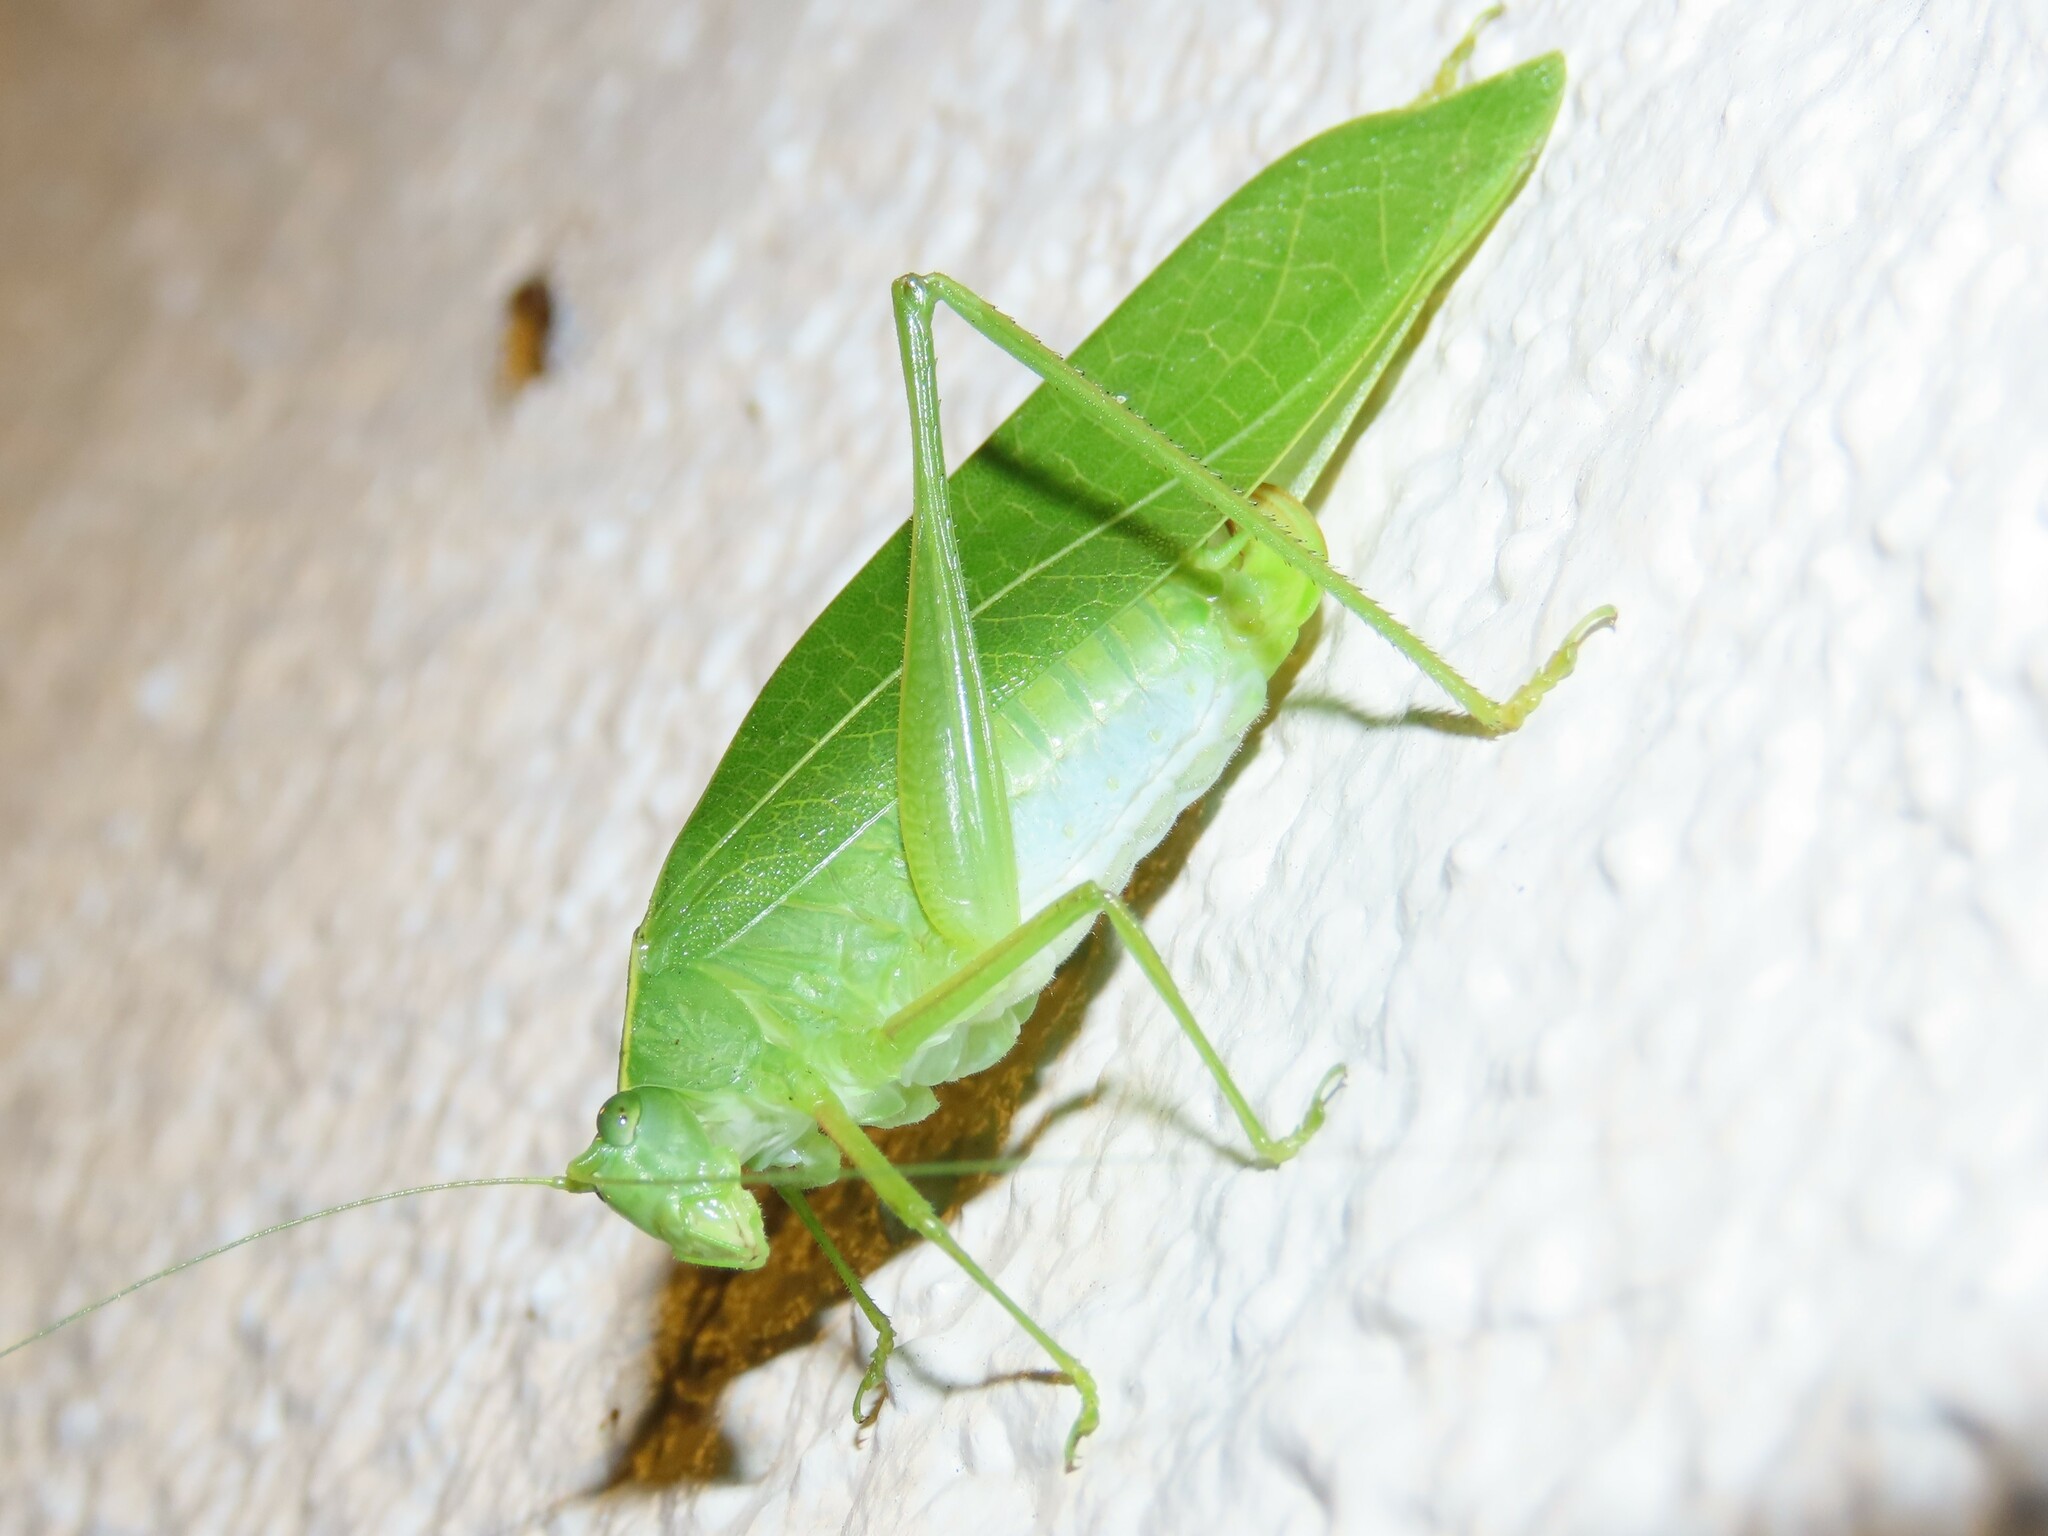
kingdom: Animalia
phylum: Arthropoda
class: Insecta
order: Orthoptera
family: Tettigoniidae
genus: Turpilia
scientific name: Turpilia rostrata
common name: Narrow-beaked katydid
